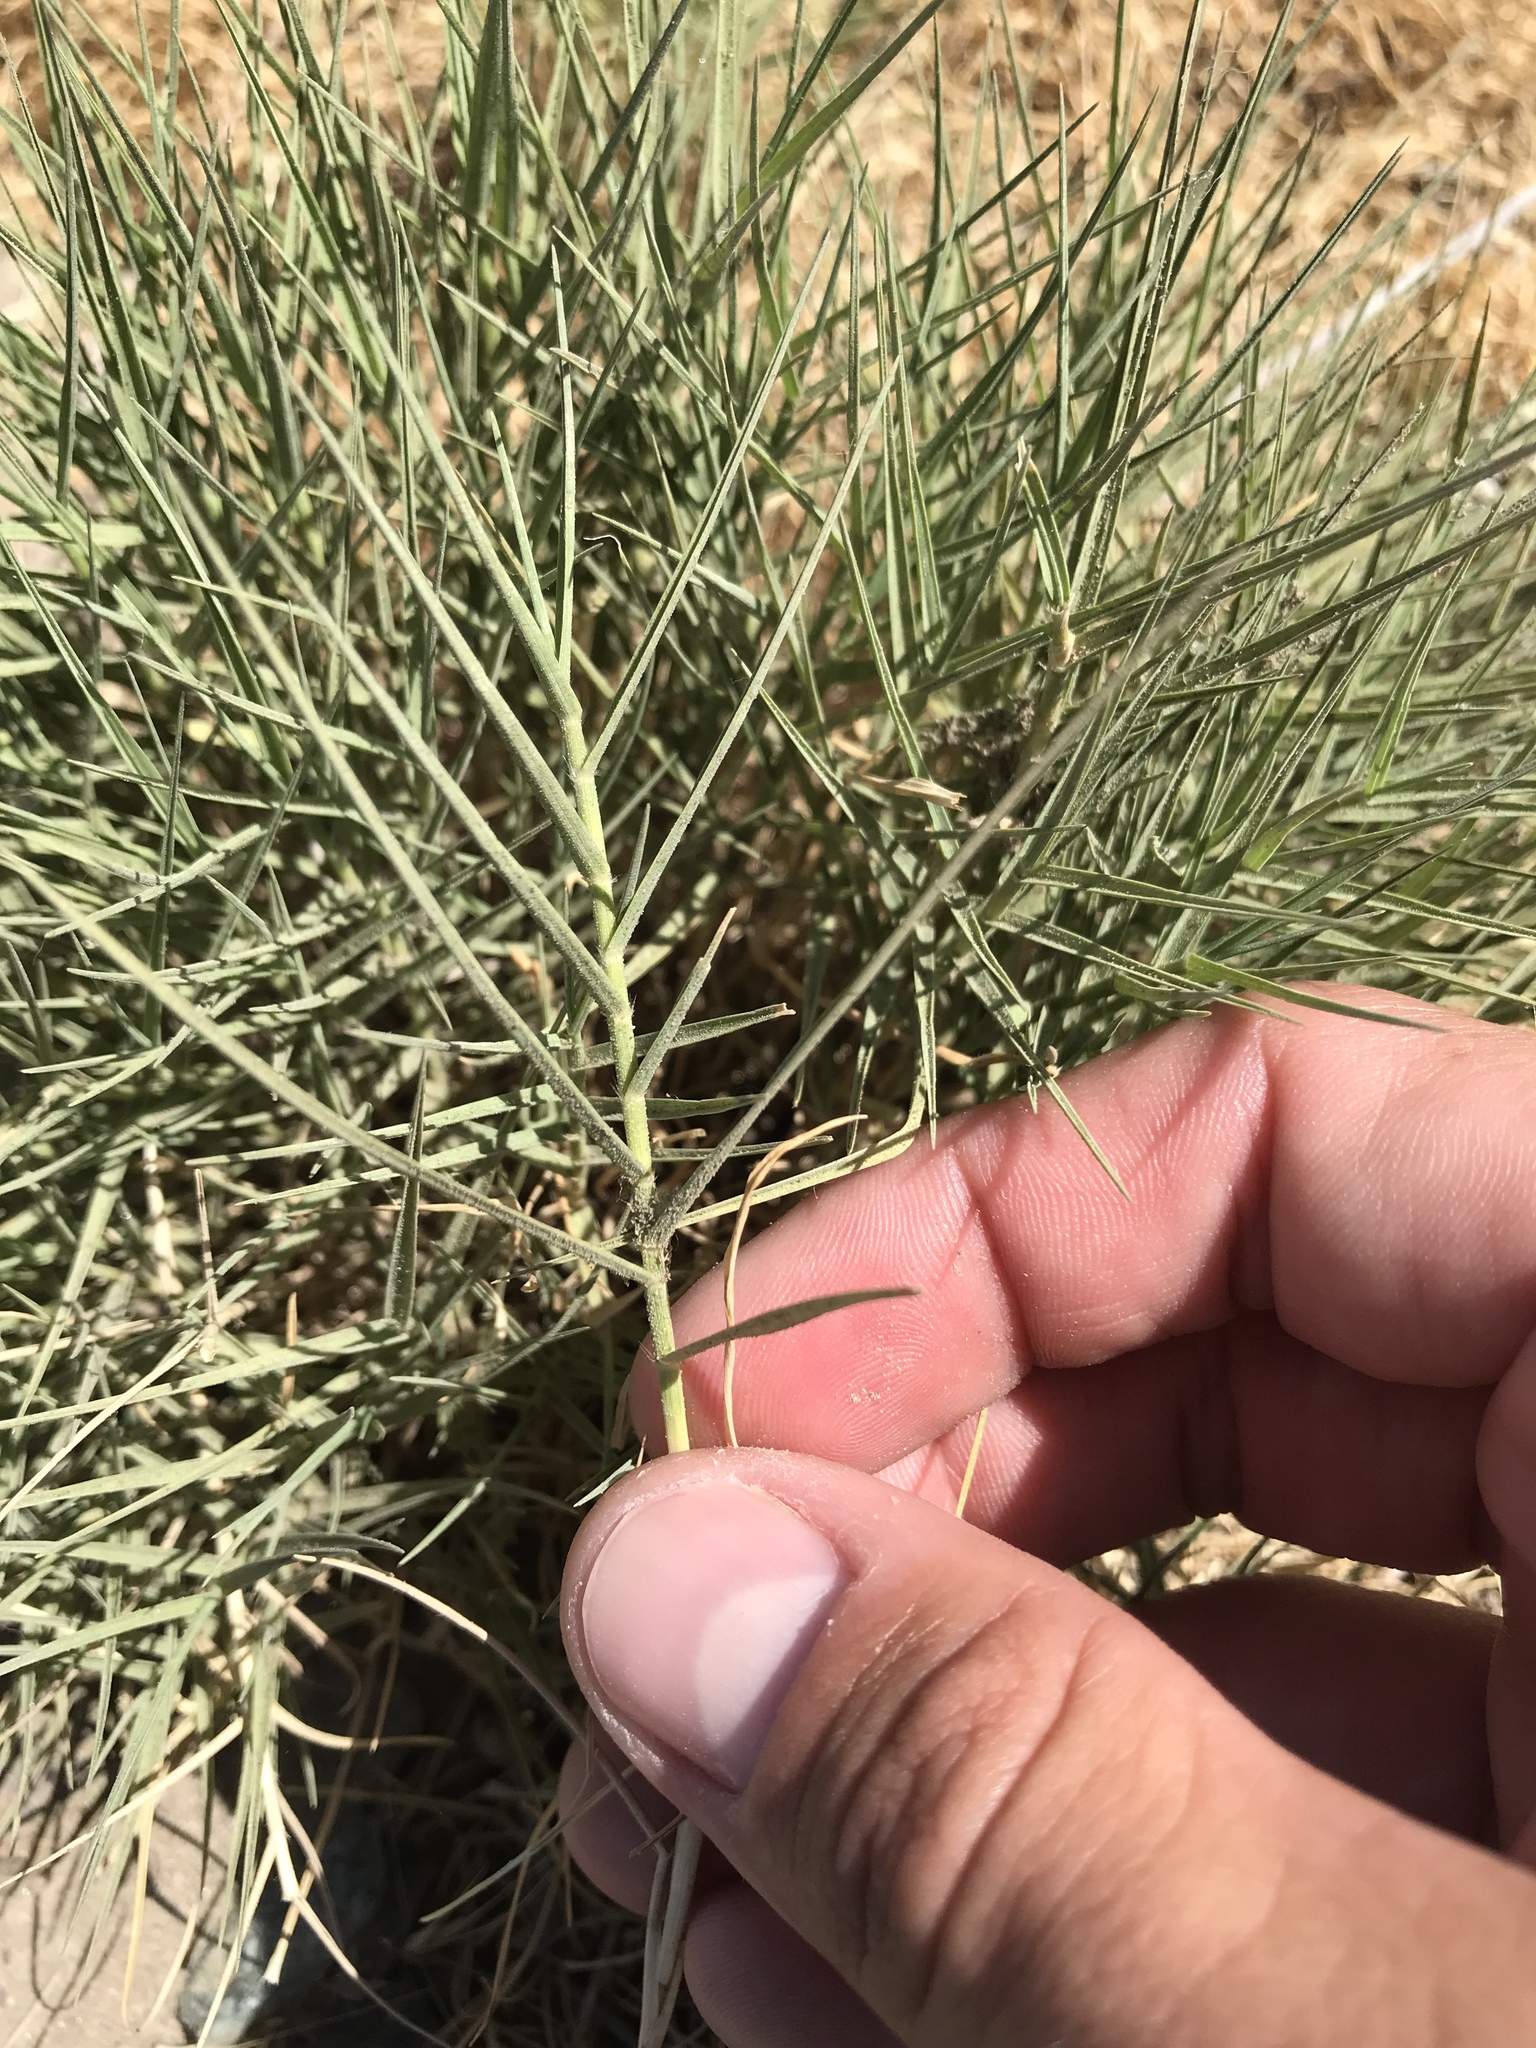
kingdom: Plantae
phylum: Tracheophyta
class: Liliopsida
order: Poales
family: Poaceae
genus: Distichlis
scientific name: Distichlis spicata
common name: Saltgrass
